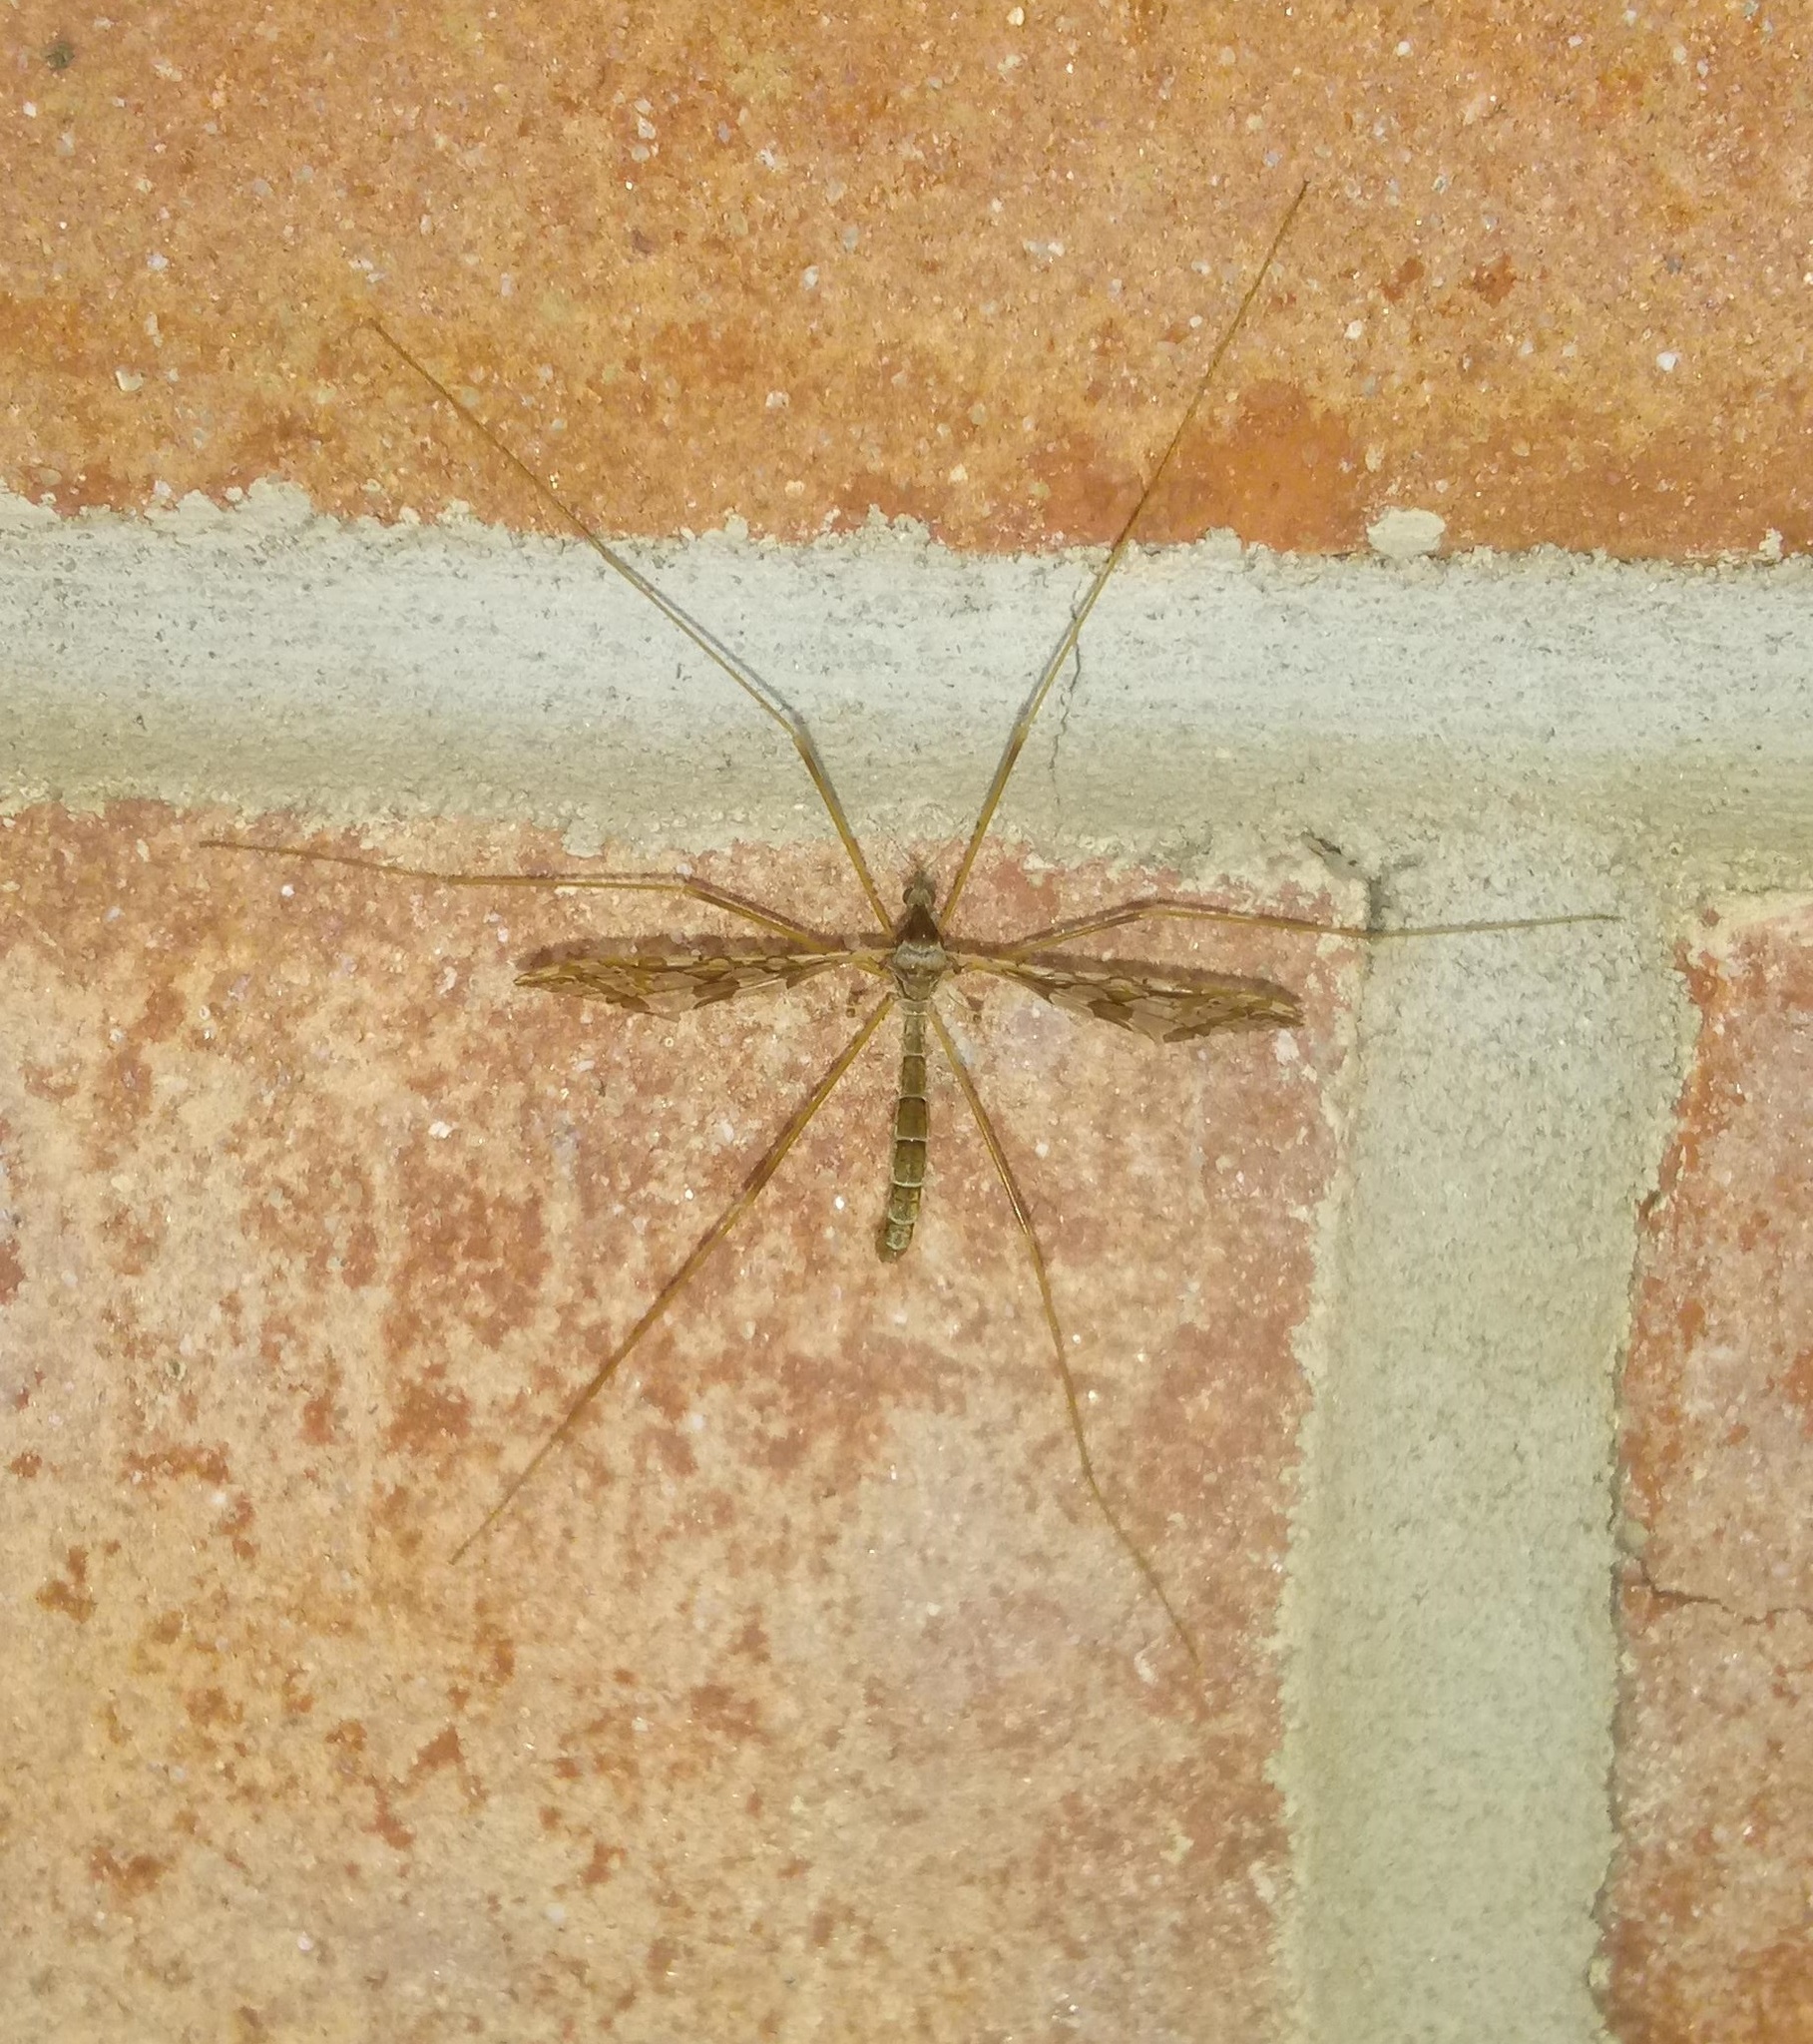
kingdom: Animalia
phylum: Arthropoda
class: Insecta
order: Diptera
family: Limoniidae
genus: Epiphragma
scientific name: Epiphragma solatrix
